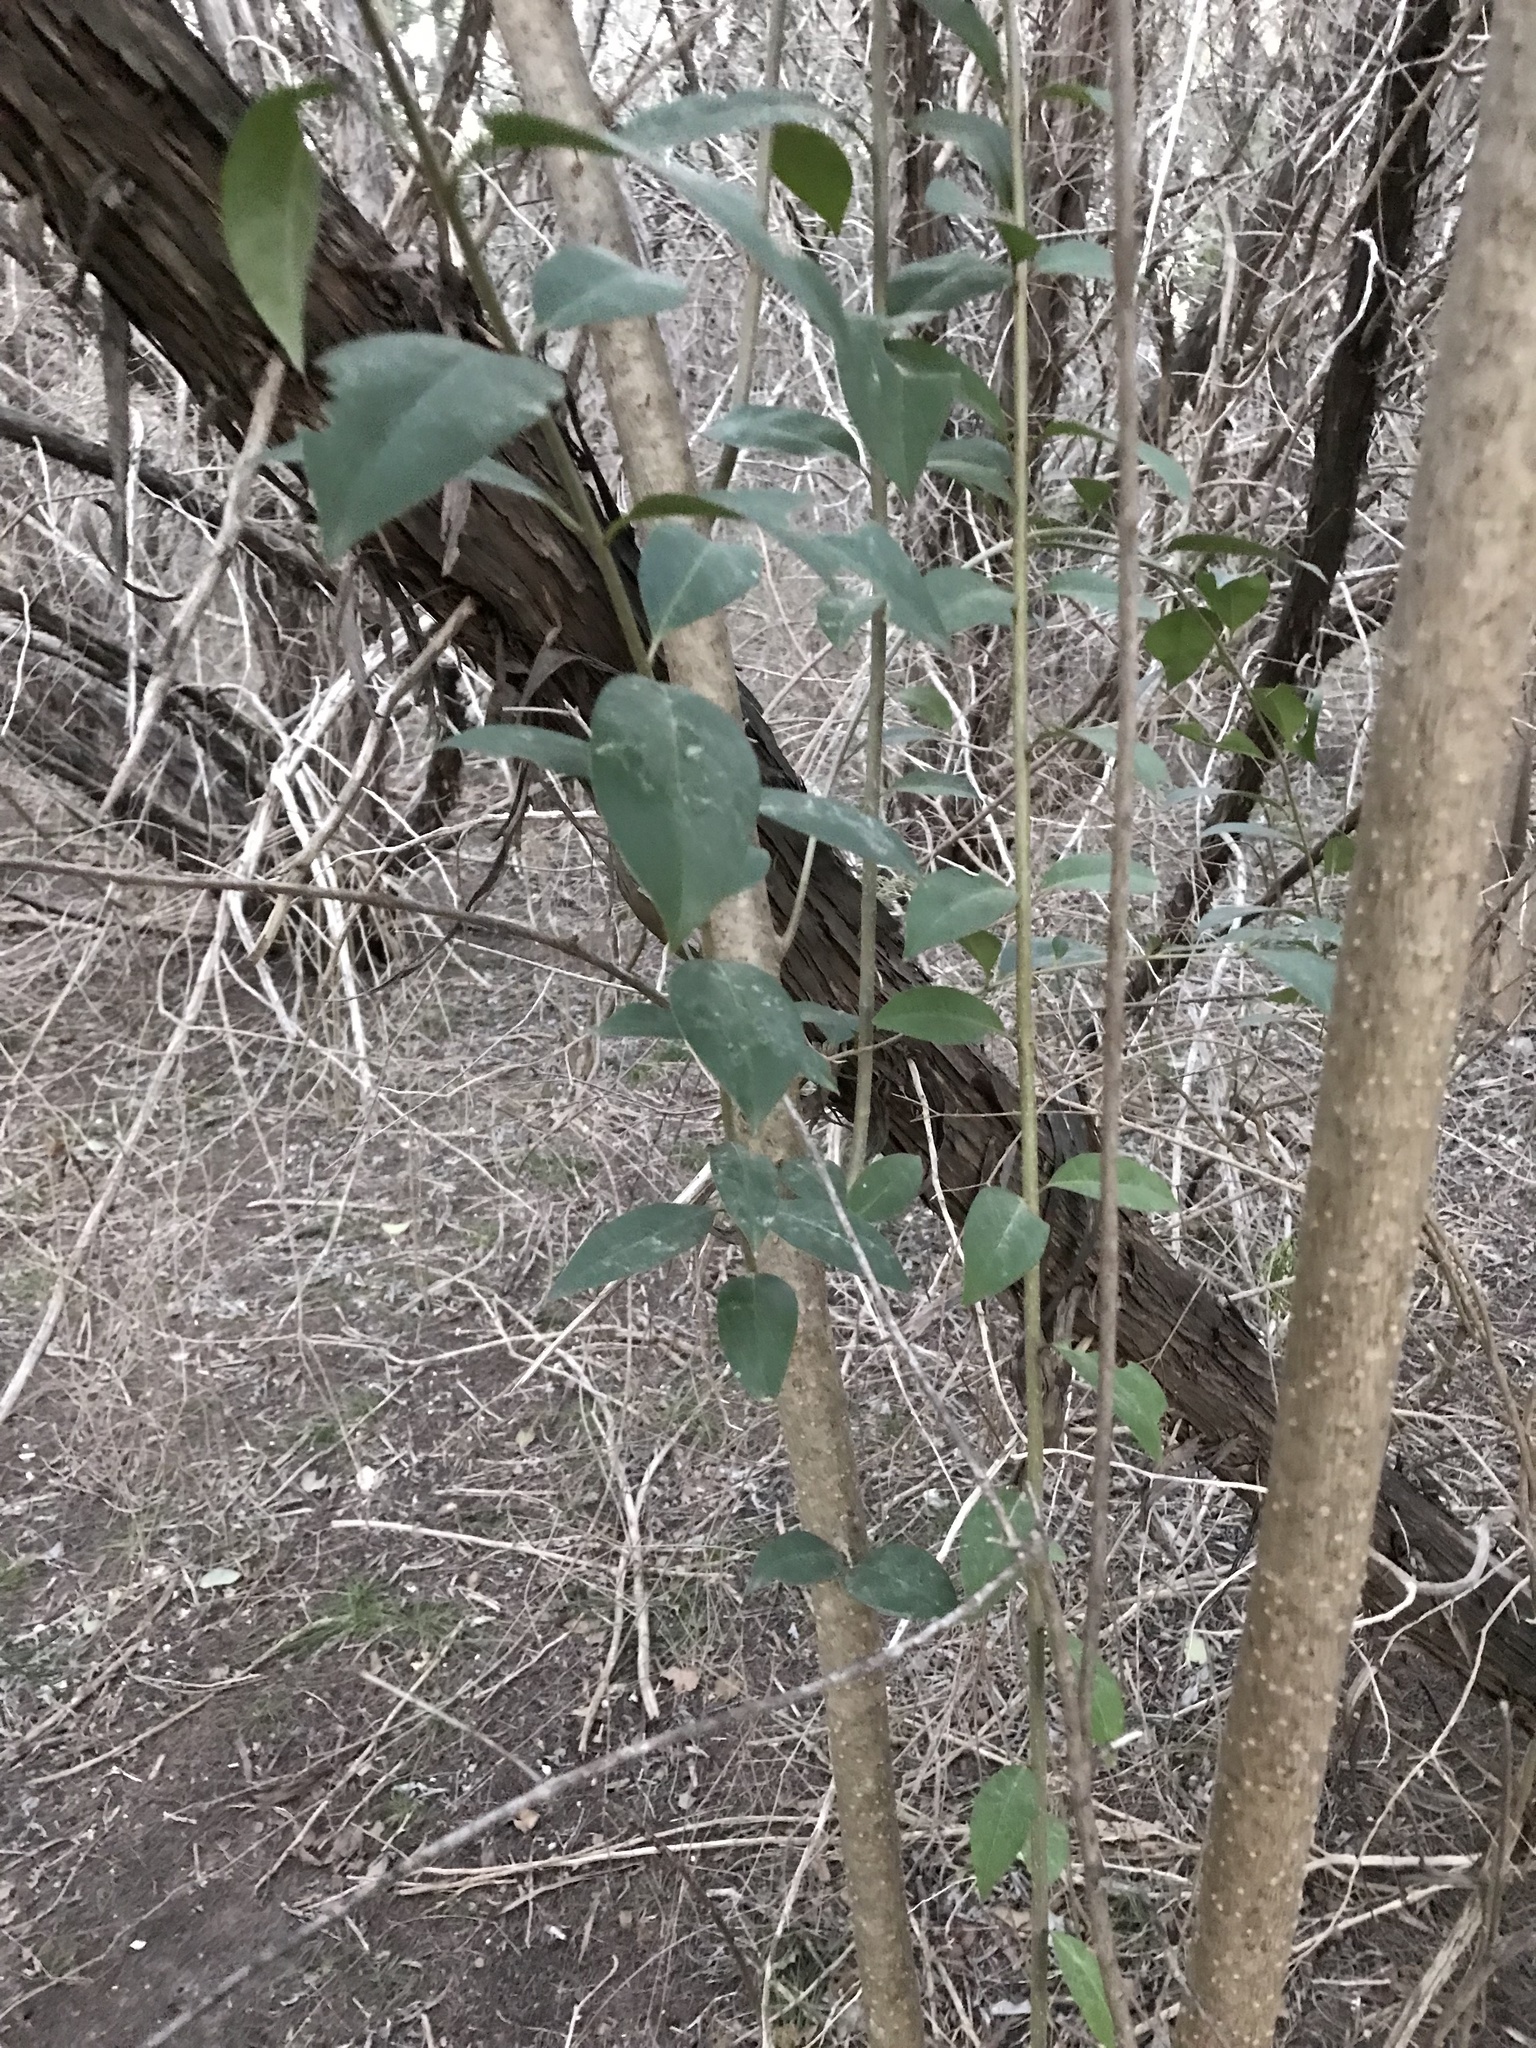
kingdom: Plantae
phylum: Tracheophyta
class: Magnoliopsida
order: Lamiales
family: Oleaceae
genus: Ligustrum
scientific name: Ligustrum lucidum
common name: Glossy privet
